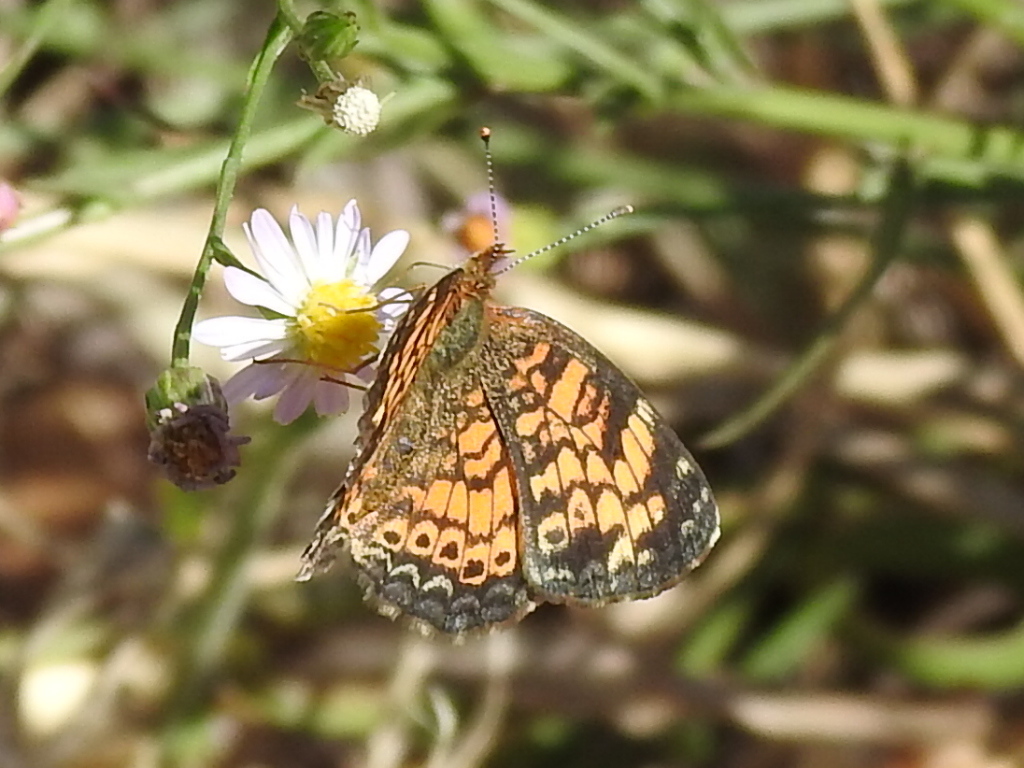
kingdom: Animalia
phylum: Arthropoda
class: Insecta
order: Lepidoptera
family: Nymphalidae
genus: Phyciodes
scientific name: Phyciodes tharos
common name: Pearl crescent
